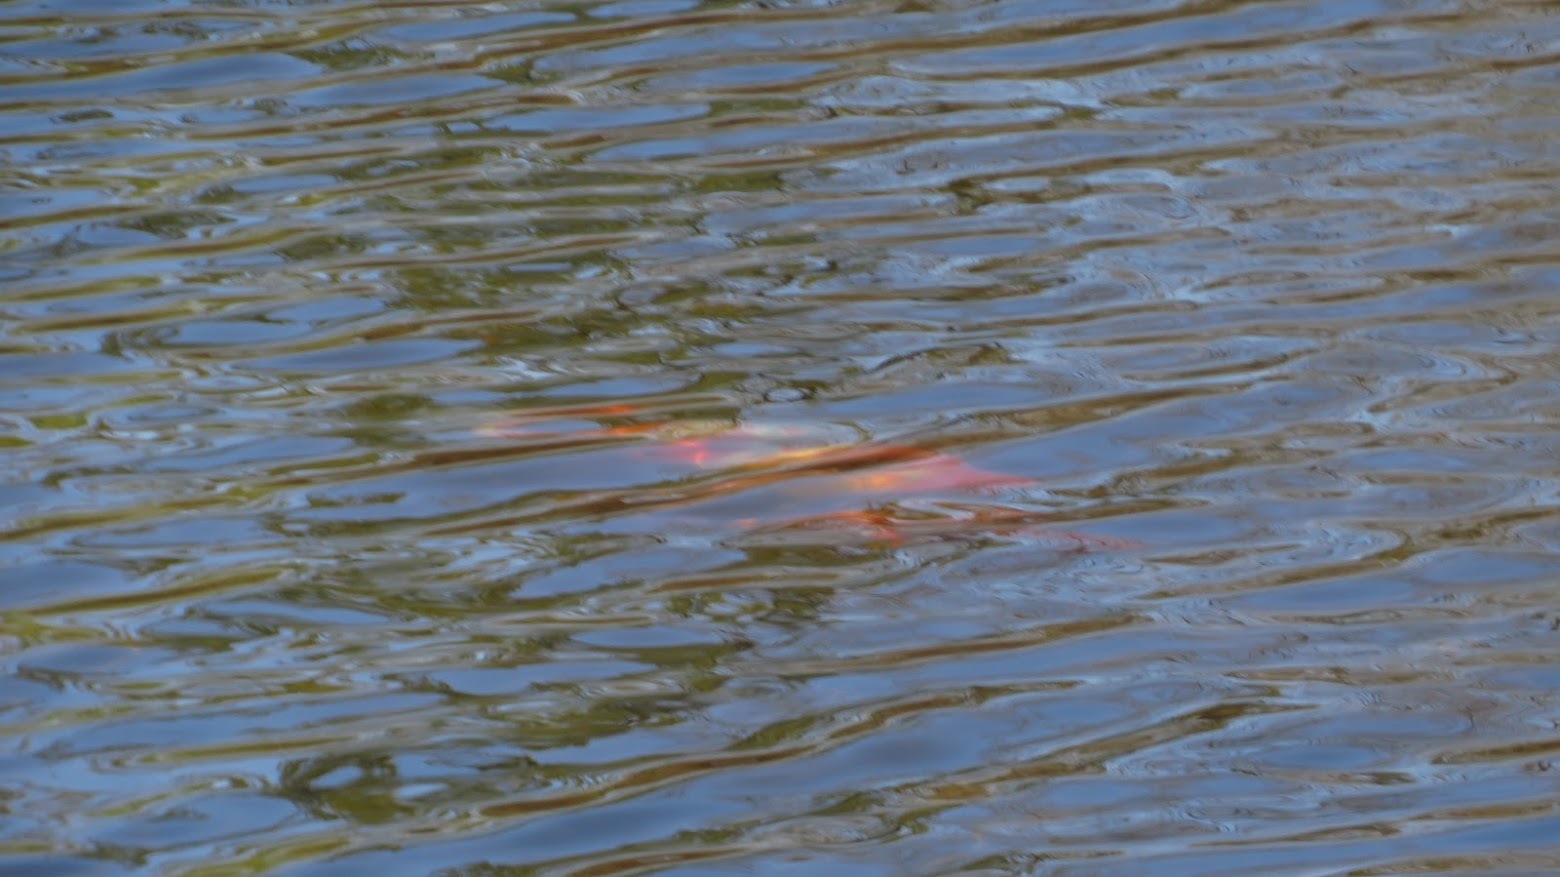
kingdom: Animalia
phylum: Chordata
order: Cypriniformes
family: Cyprinidae
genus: Cyprinus
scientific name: Cyprinus rubrofuscus
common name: Koi
